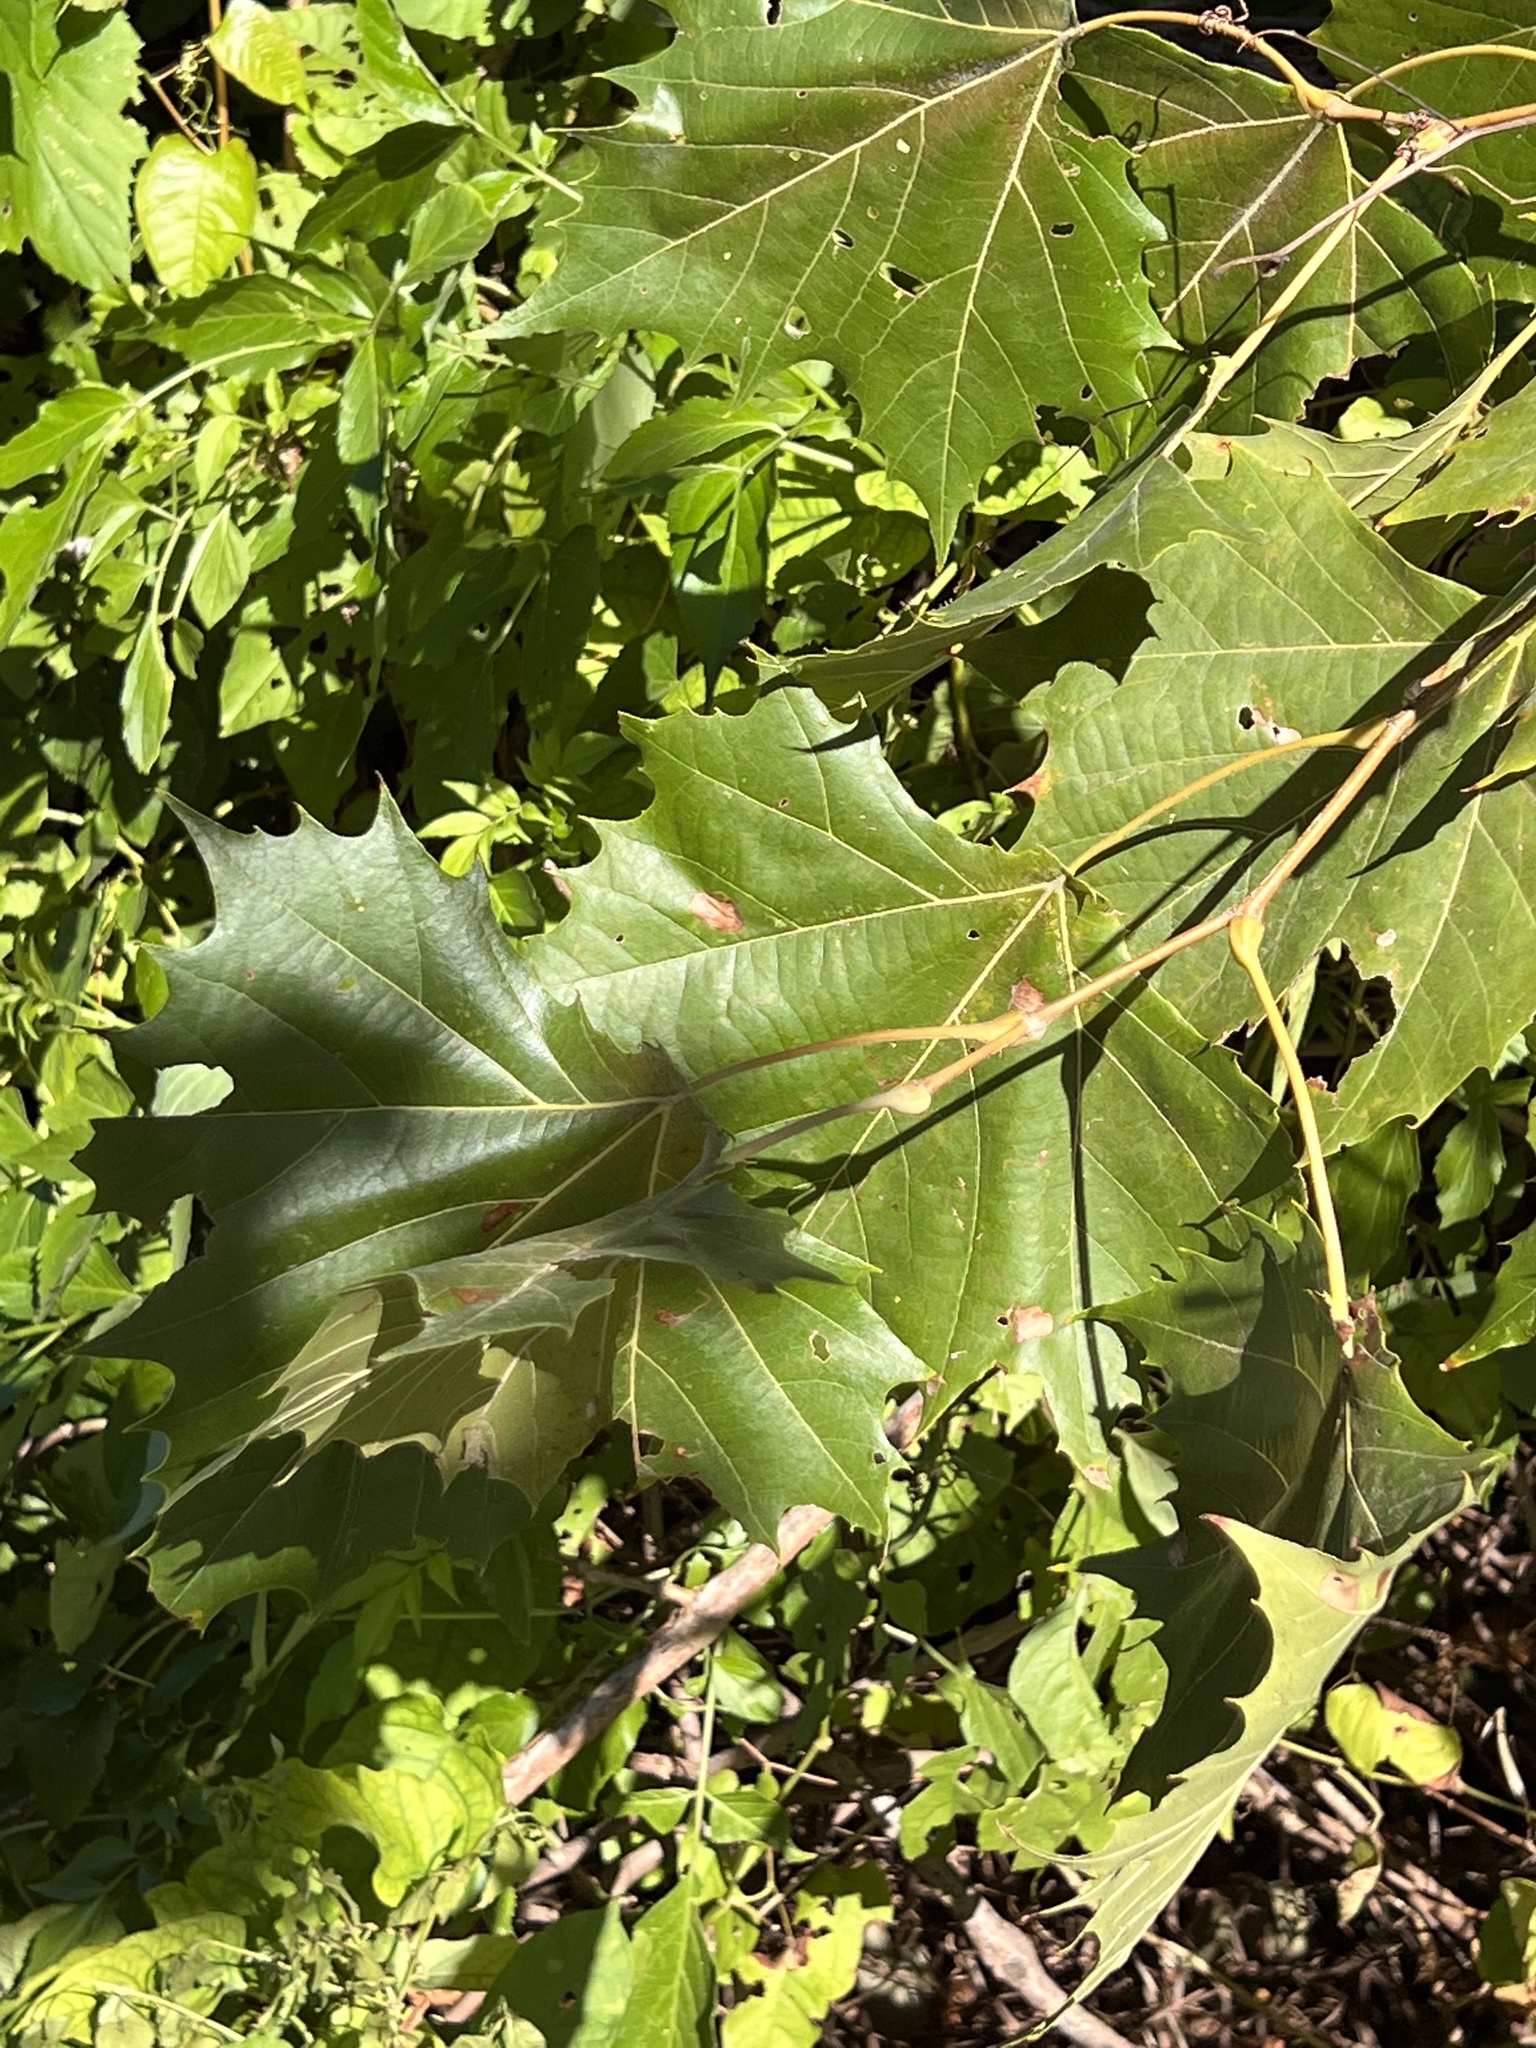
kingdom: Plantae
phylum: Tracheophyta
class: Magnoliopsida
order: Proteales
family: Platanaceae
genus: Platanus
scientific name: Platanus occidentalis
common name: American sycamore
